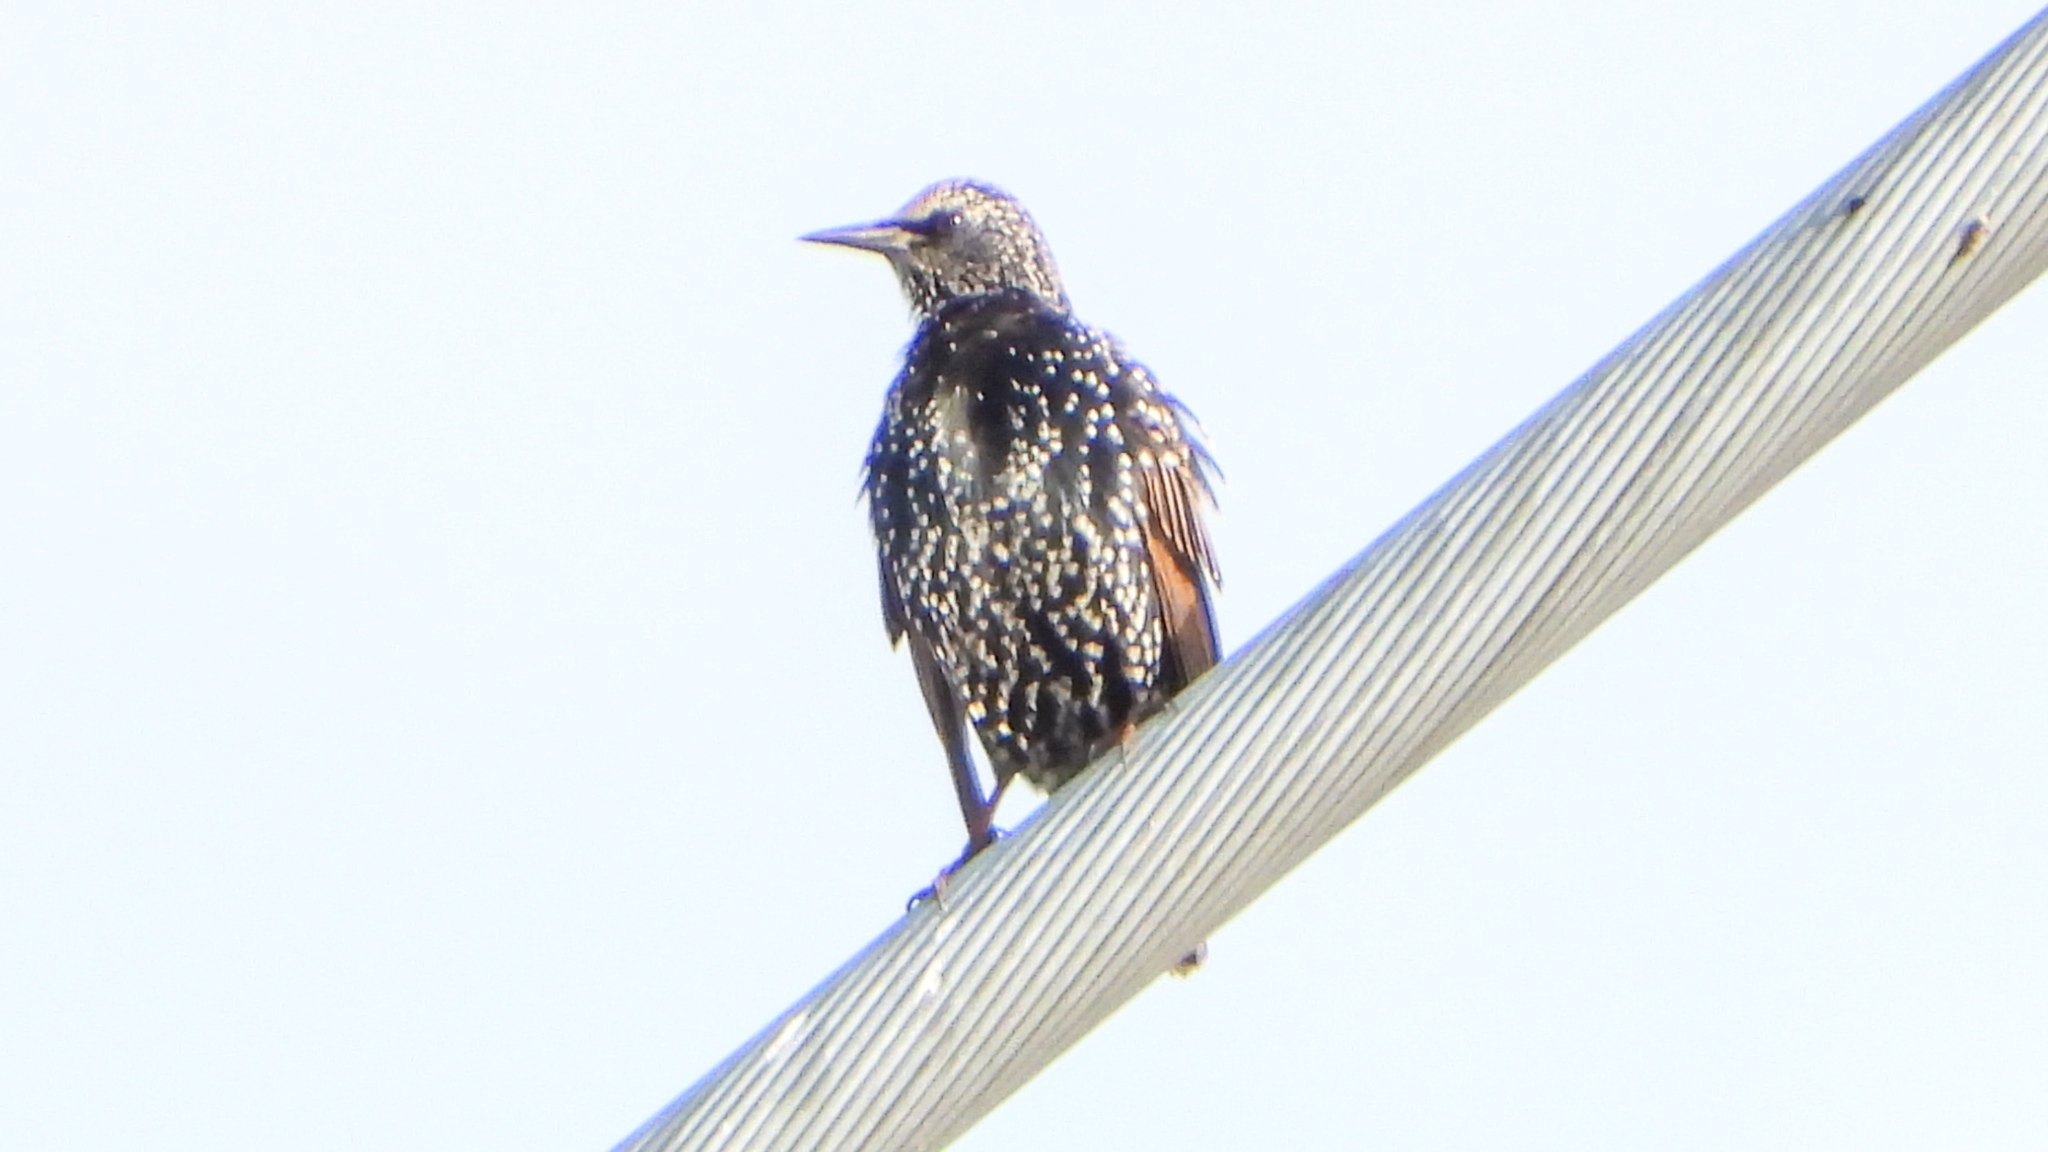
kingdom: Animalia
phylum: Chordata
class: Aves
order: Passeriformes
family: Sturnidae
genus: Sturnus
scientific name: Sturnus vulgaris
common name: Common starling
